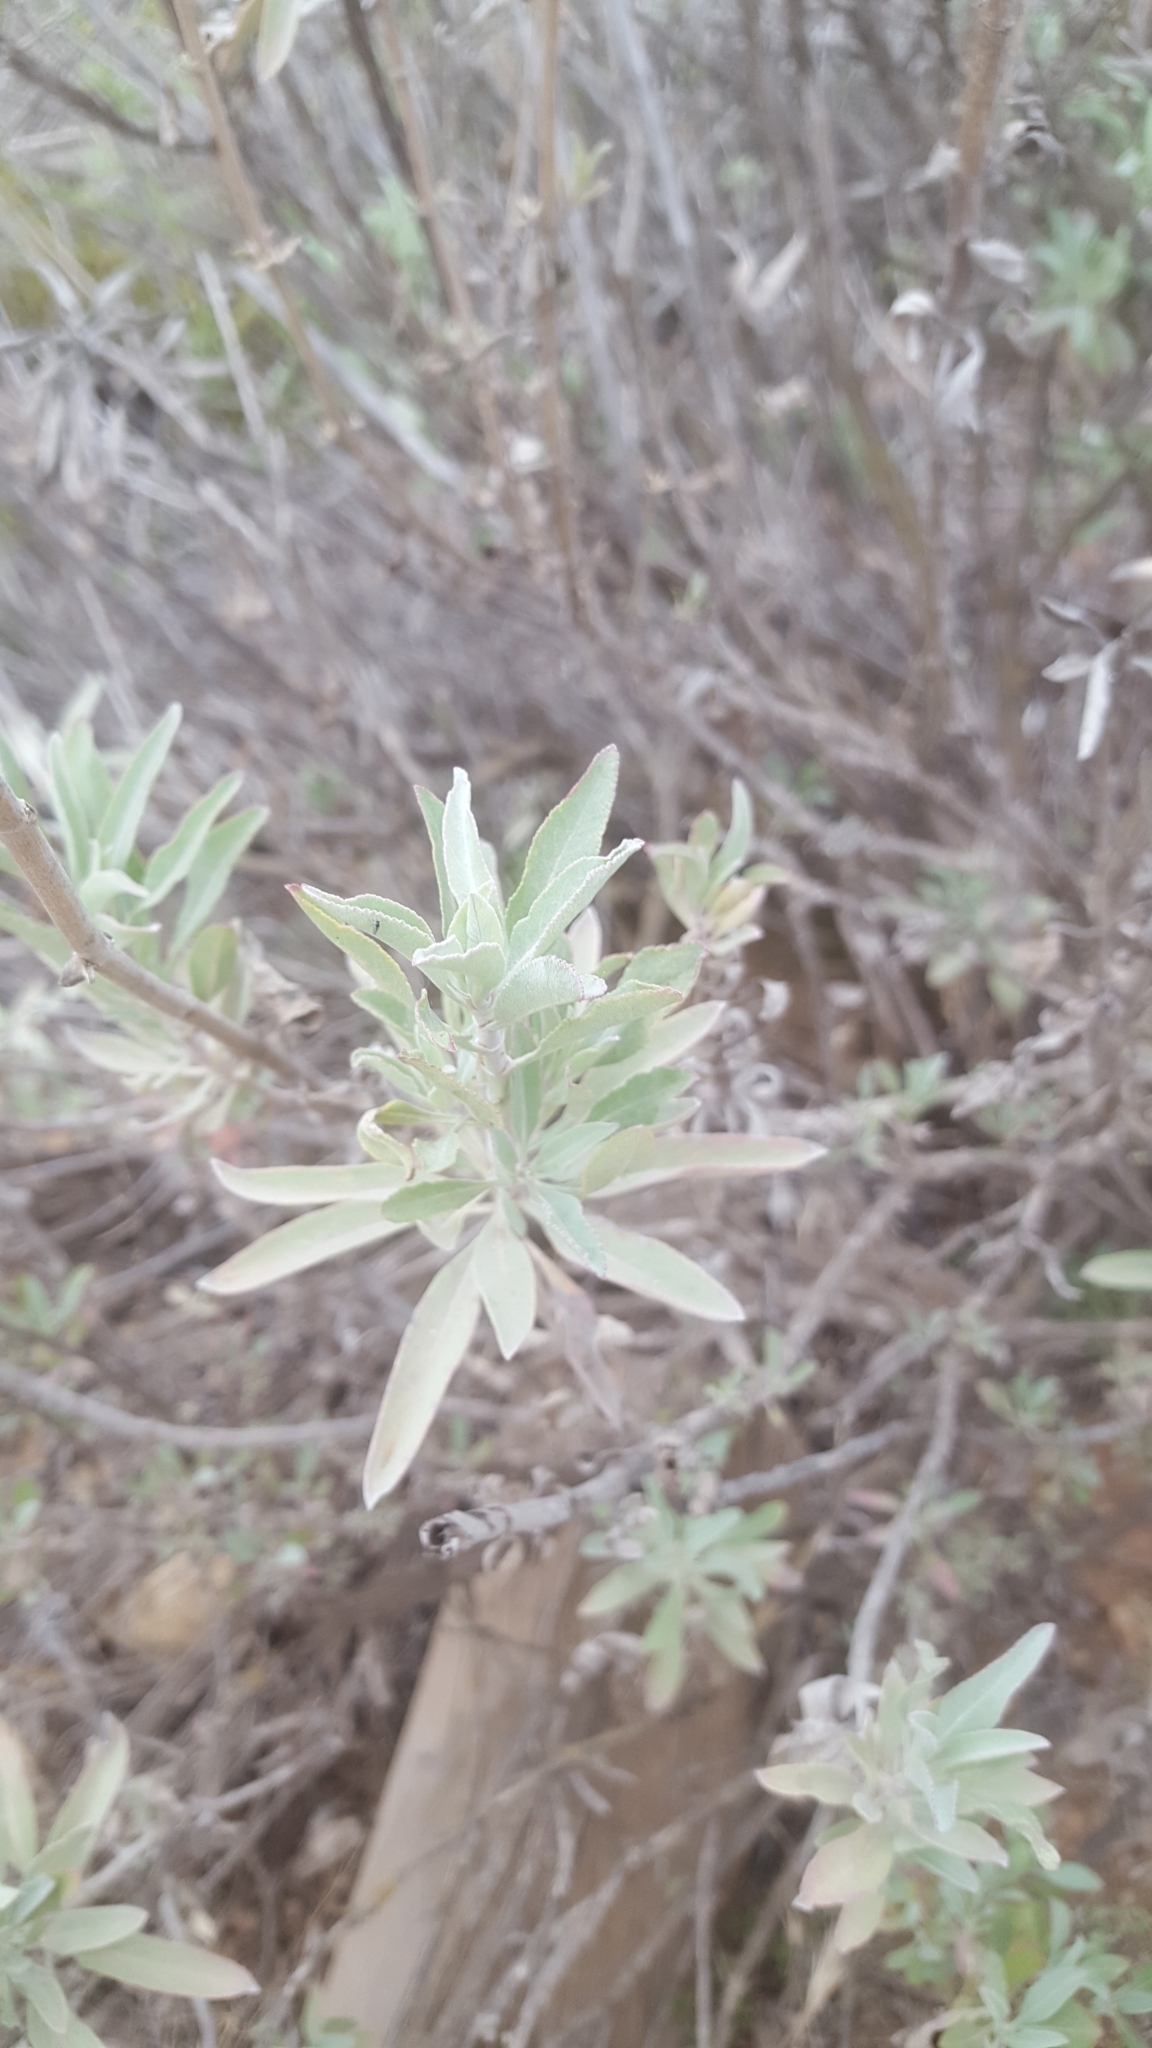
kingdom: Plantae
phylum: Tracheophyta
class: Magnoliopsida
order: Lamiales
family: Lamiaceae
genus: Salvia
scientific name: Salvia apiana
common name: White sage
